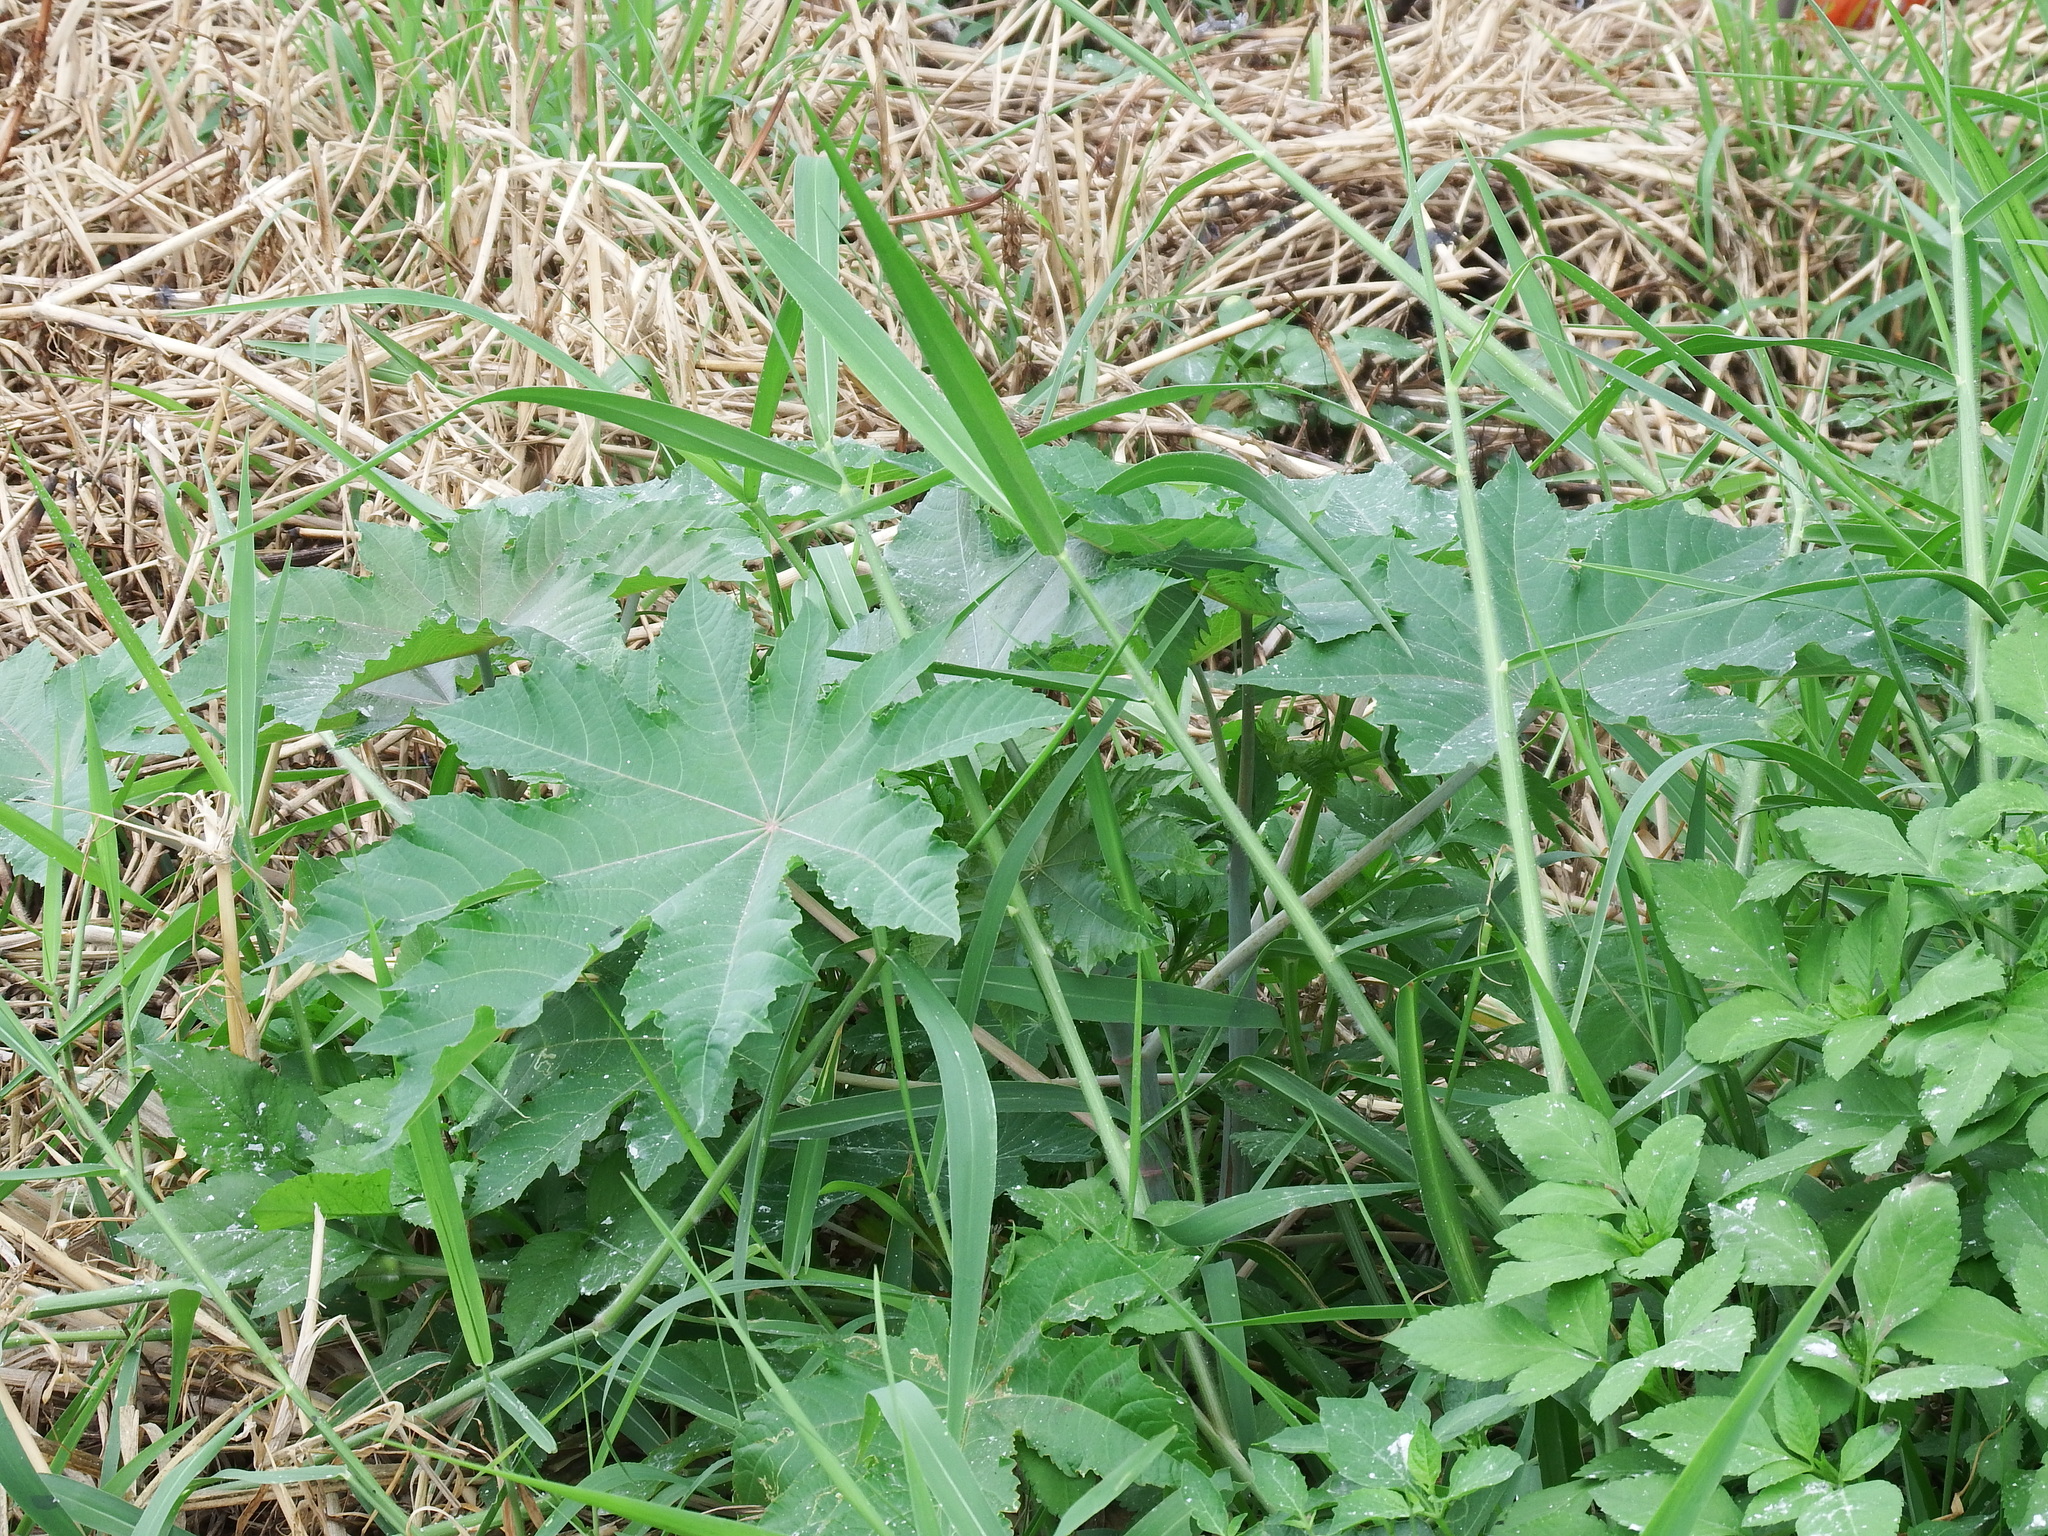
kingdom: Plantae
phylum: Tracheophyta
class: Magnoliopsida
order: Malpighiales
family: Euphorbiaceae
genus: Ricinus
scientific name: Ricinus communis
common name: Castor-oil-plant
